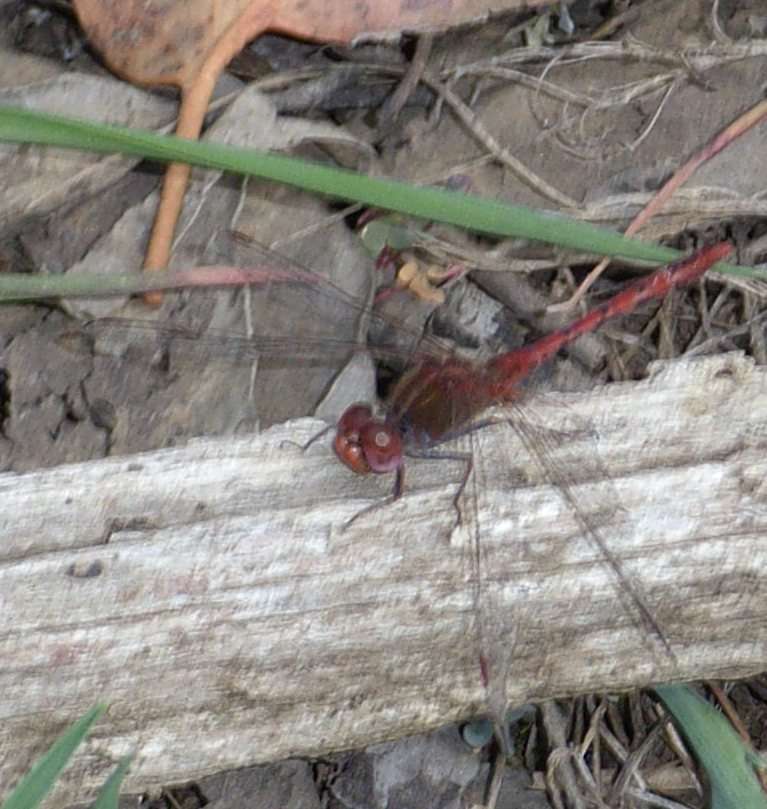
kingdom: Animalia
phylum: Arthropoda
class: Insecta
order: Odonata
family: Libellulidae
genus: Diplacodes
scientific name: Diplacodes bipunctata
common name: Red percher dragonfly
